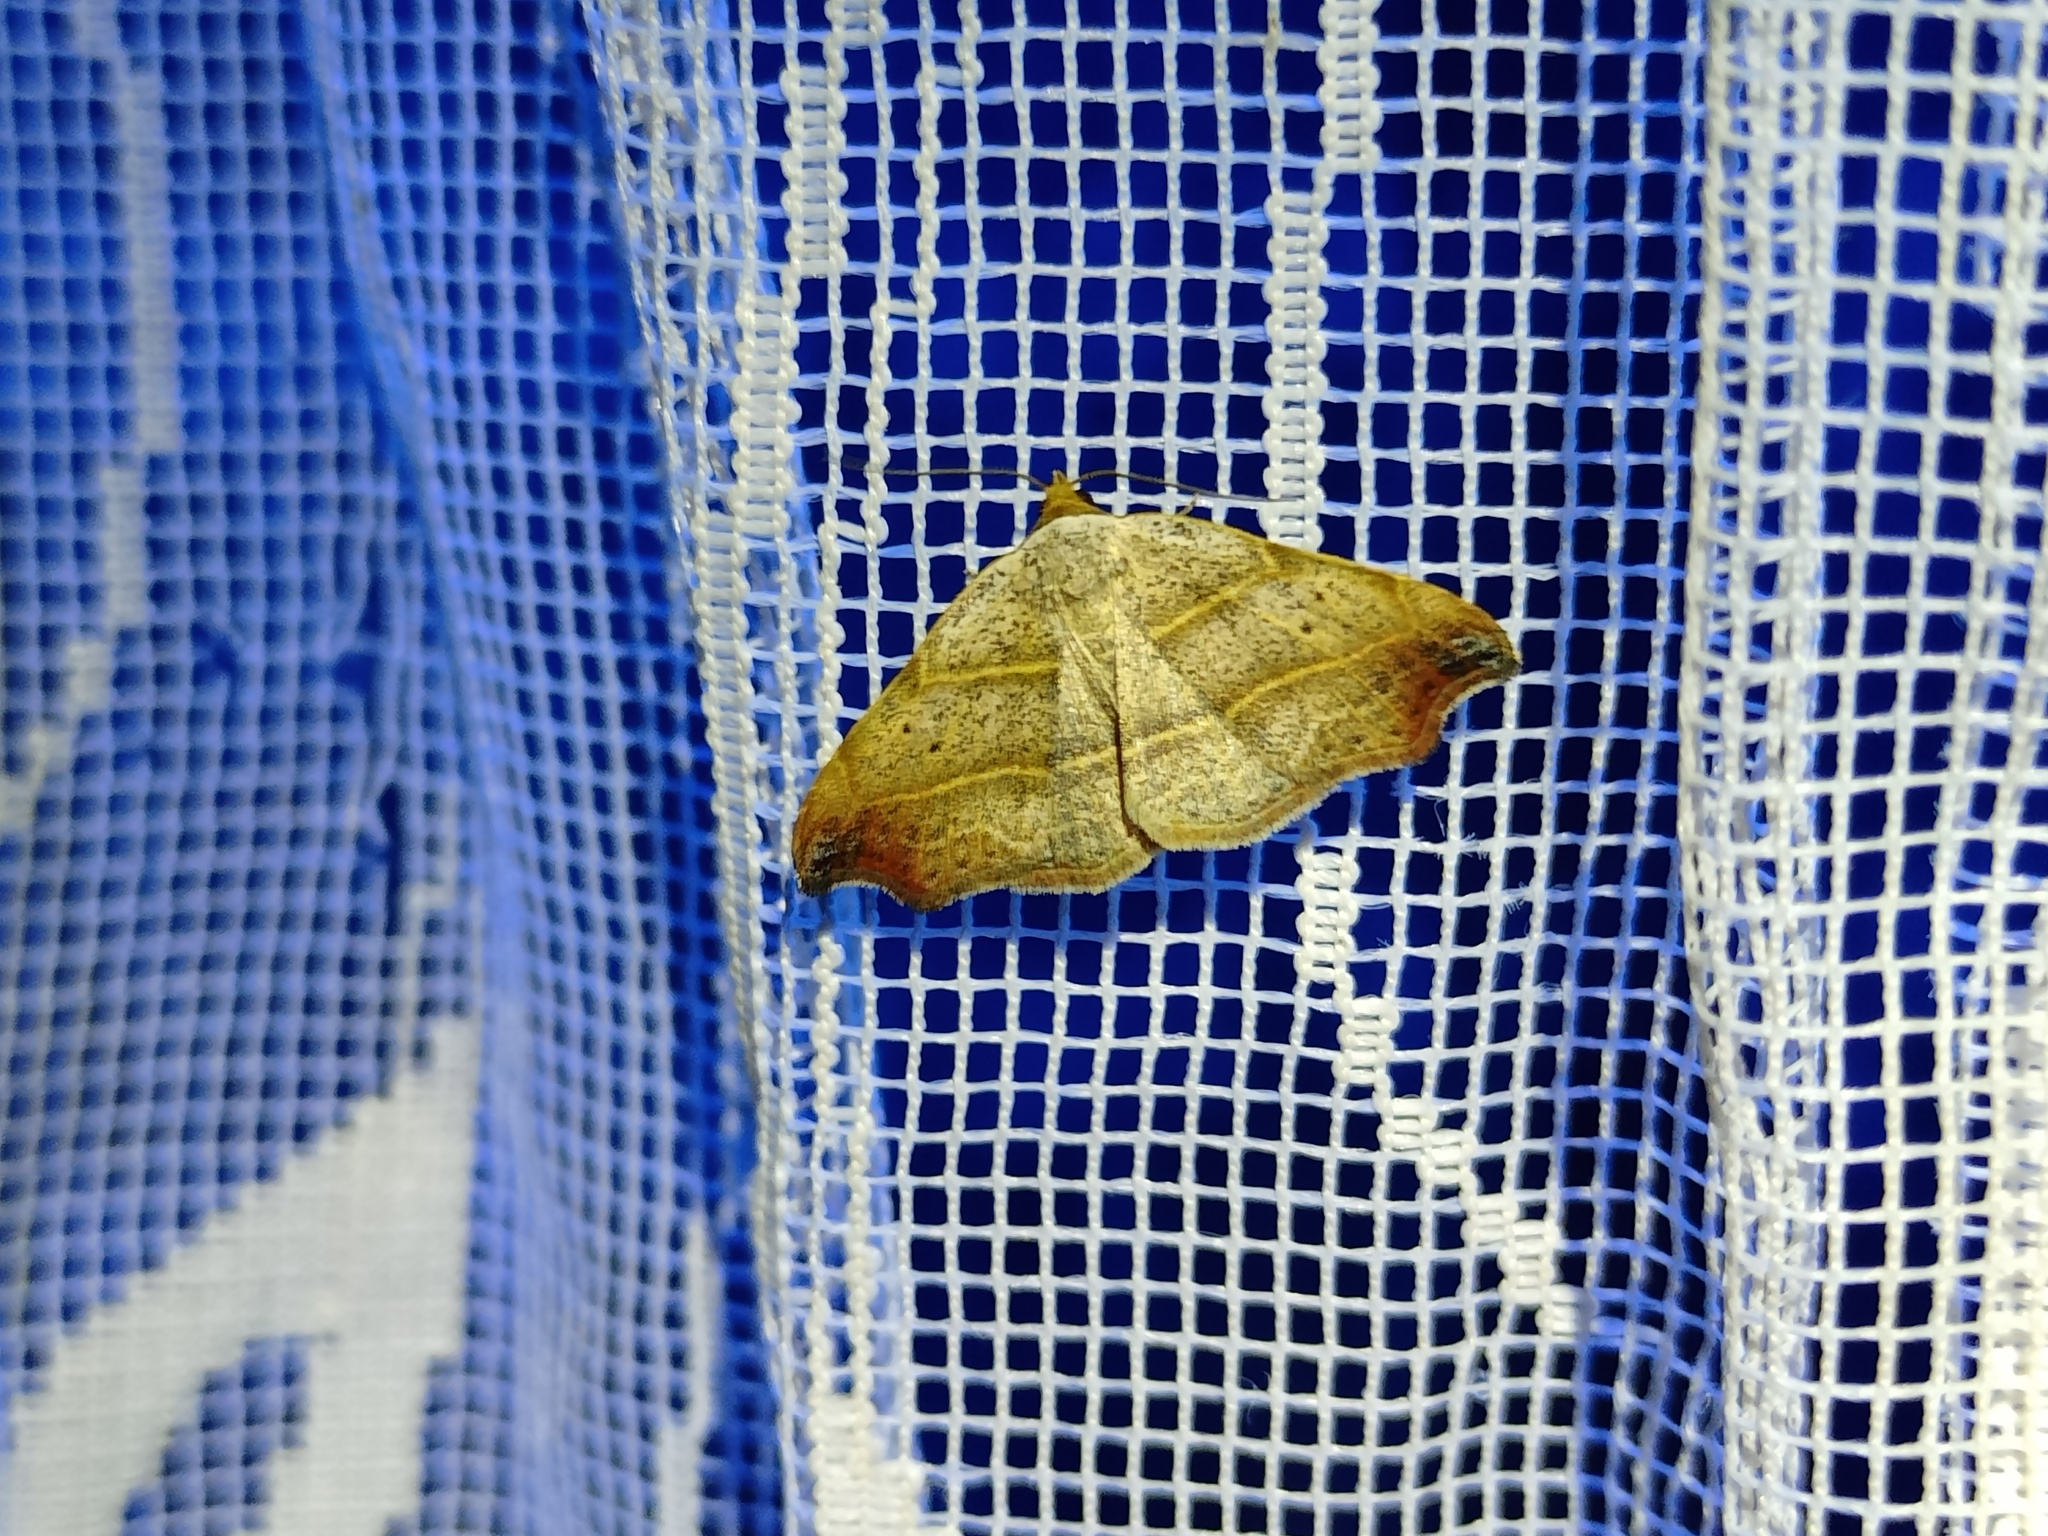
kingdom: Animalia
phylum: Arthropoda
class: Insecta
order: Lepidoptera
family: Erebidae
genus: Laspeyria
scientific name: Laspeyria flexula
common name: Beautiful hook-tip
